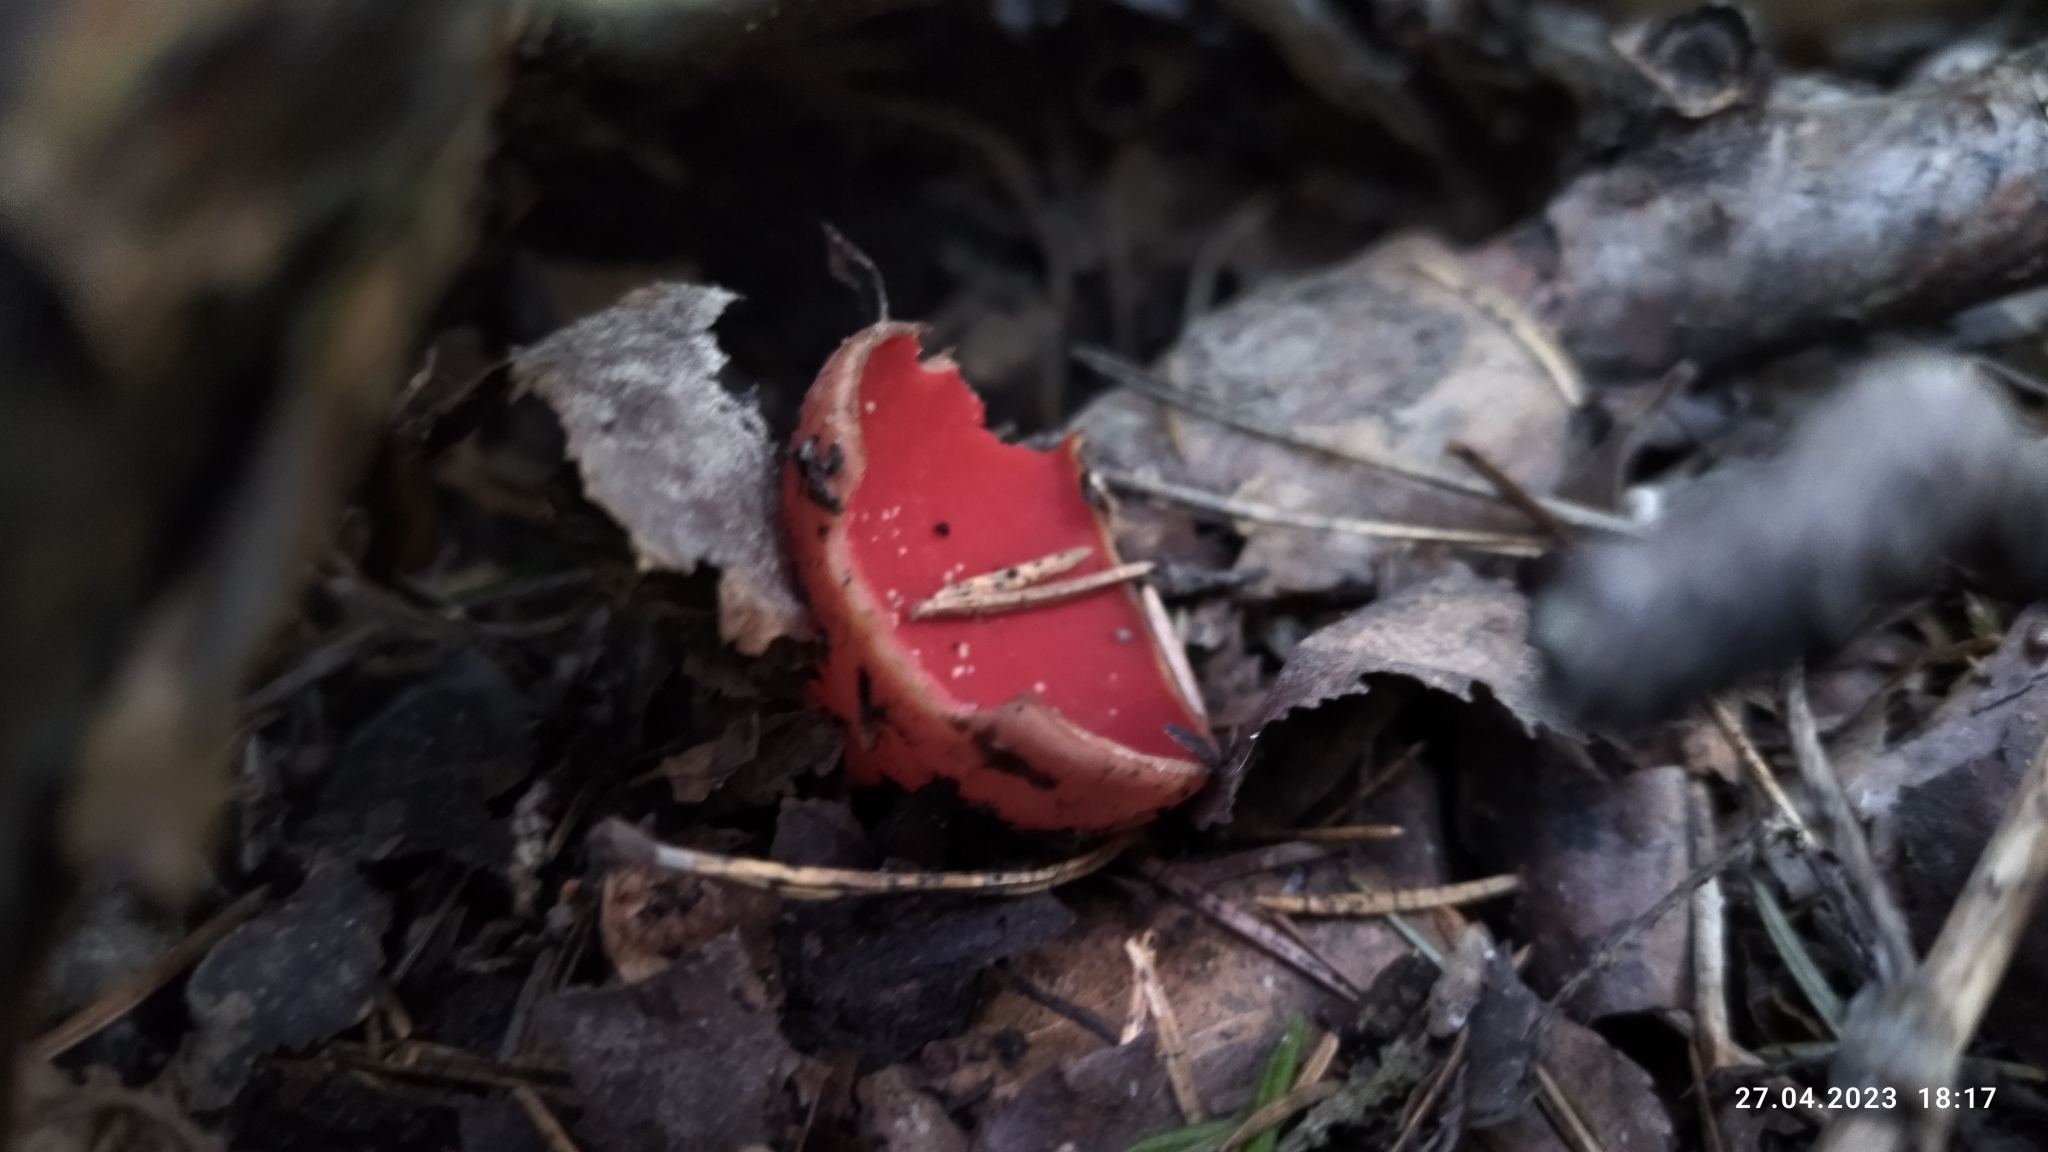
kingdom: Fungi
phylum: Ascomycota
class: Pezizomycetes
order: Pezizales
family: Sarcoscyphaceae
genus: Sarcoscypha
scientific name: Sarcoscypha austriaca
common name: Scarlet elfcup
